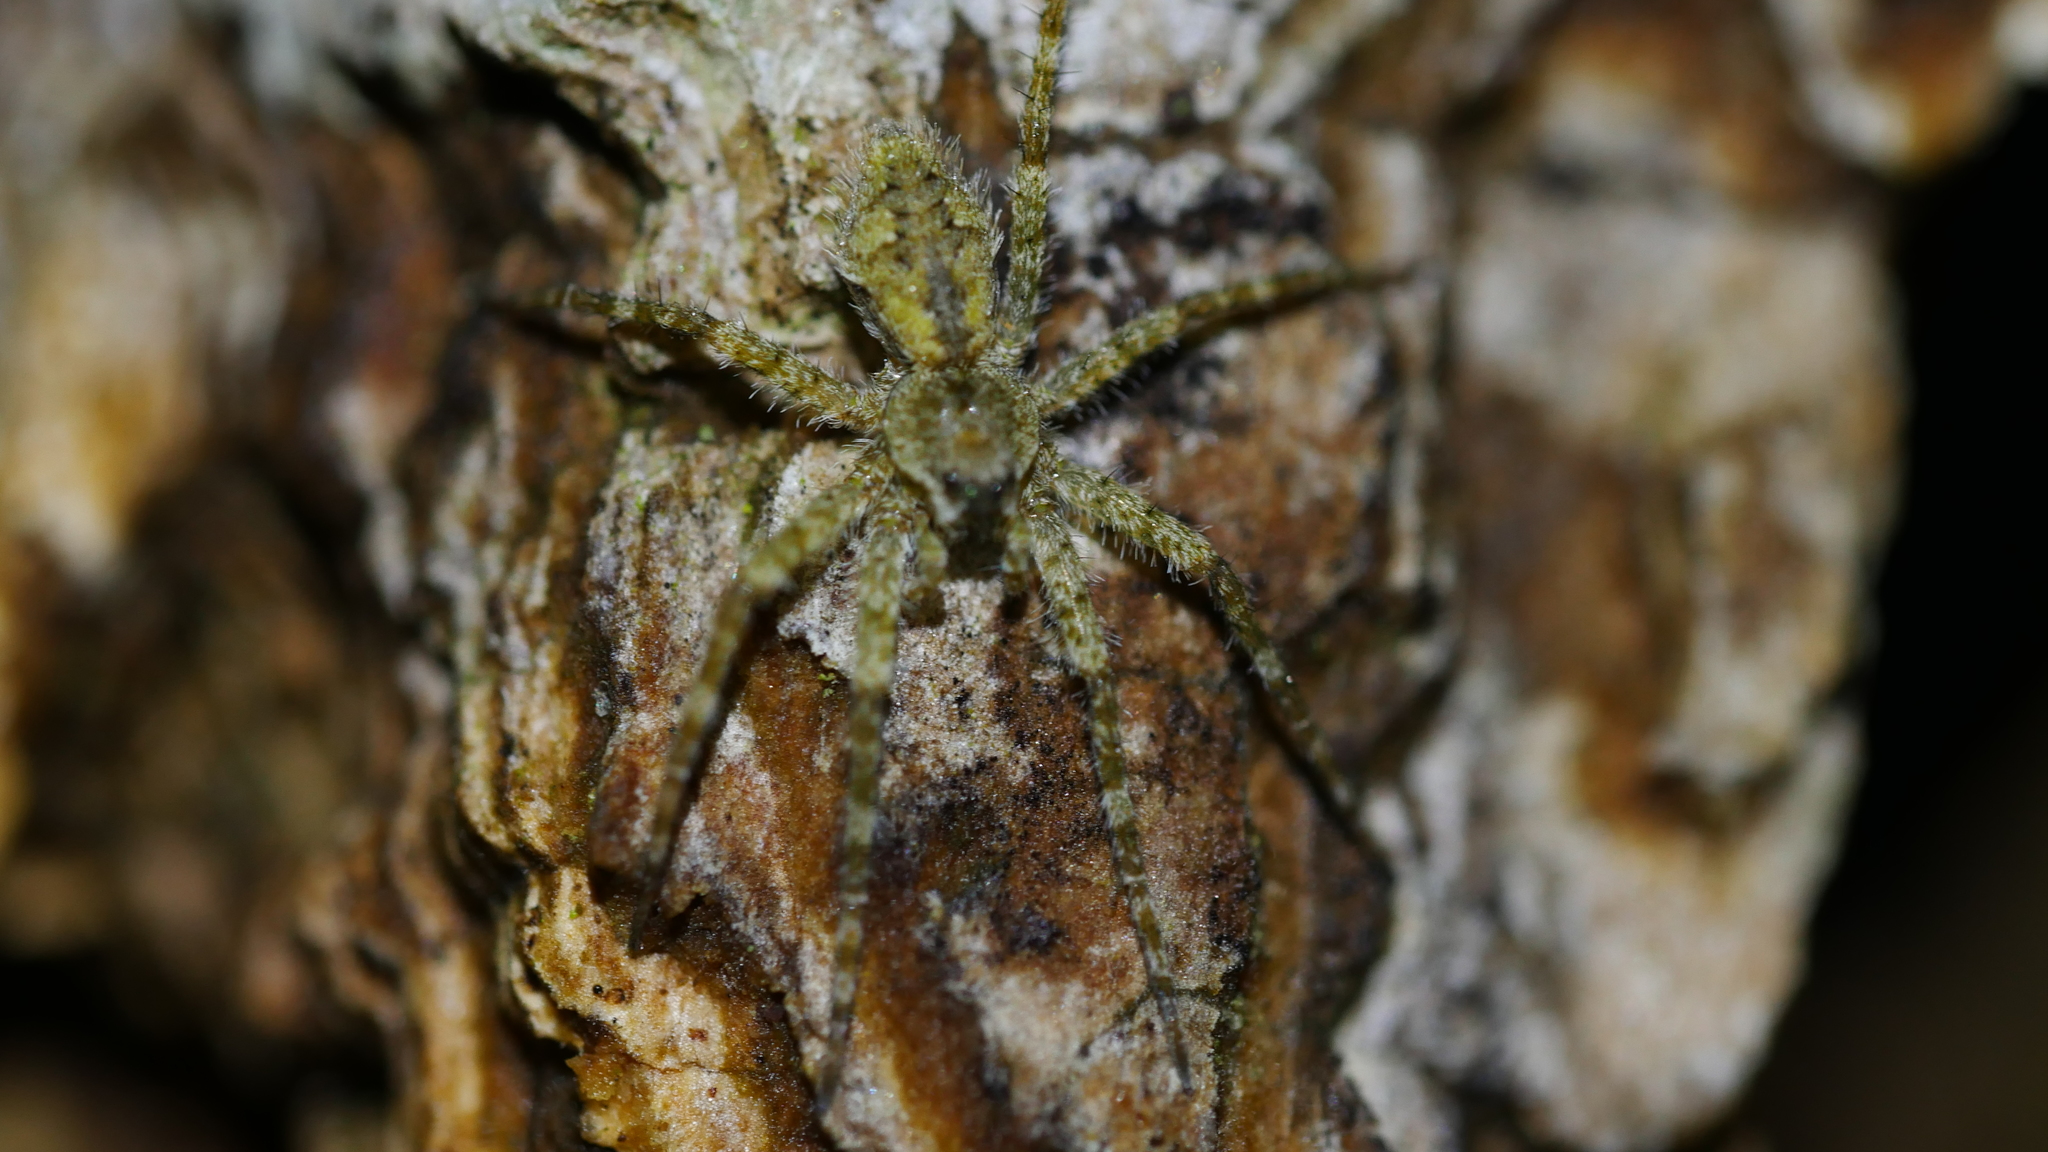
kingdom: Animalia
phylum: Arthropoda
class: Arachnida
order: Araneae
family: Pisauridae
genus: Dolomedes
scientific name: Dolomedes albineus
